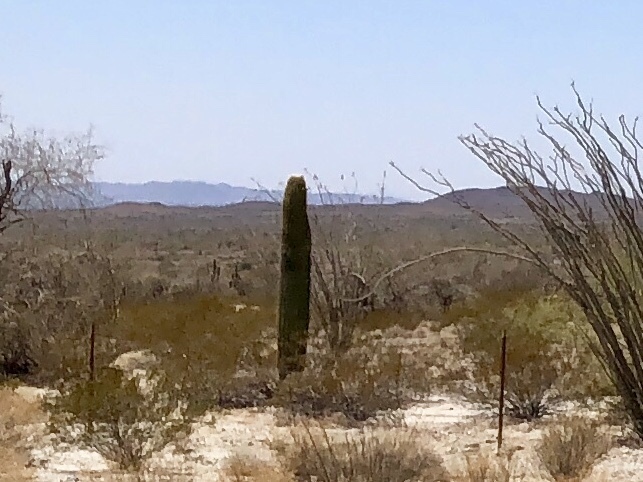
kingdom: Plantae
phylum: Tracheophyta
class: Magnoliopsida
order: Caryophyllales
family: Cactaceae
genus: Carnegiea
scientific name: Carnegiea gigantea
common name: Saguaro
